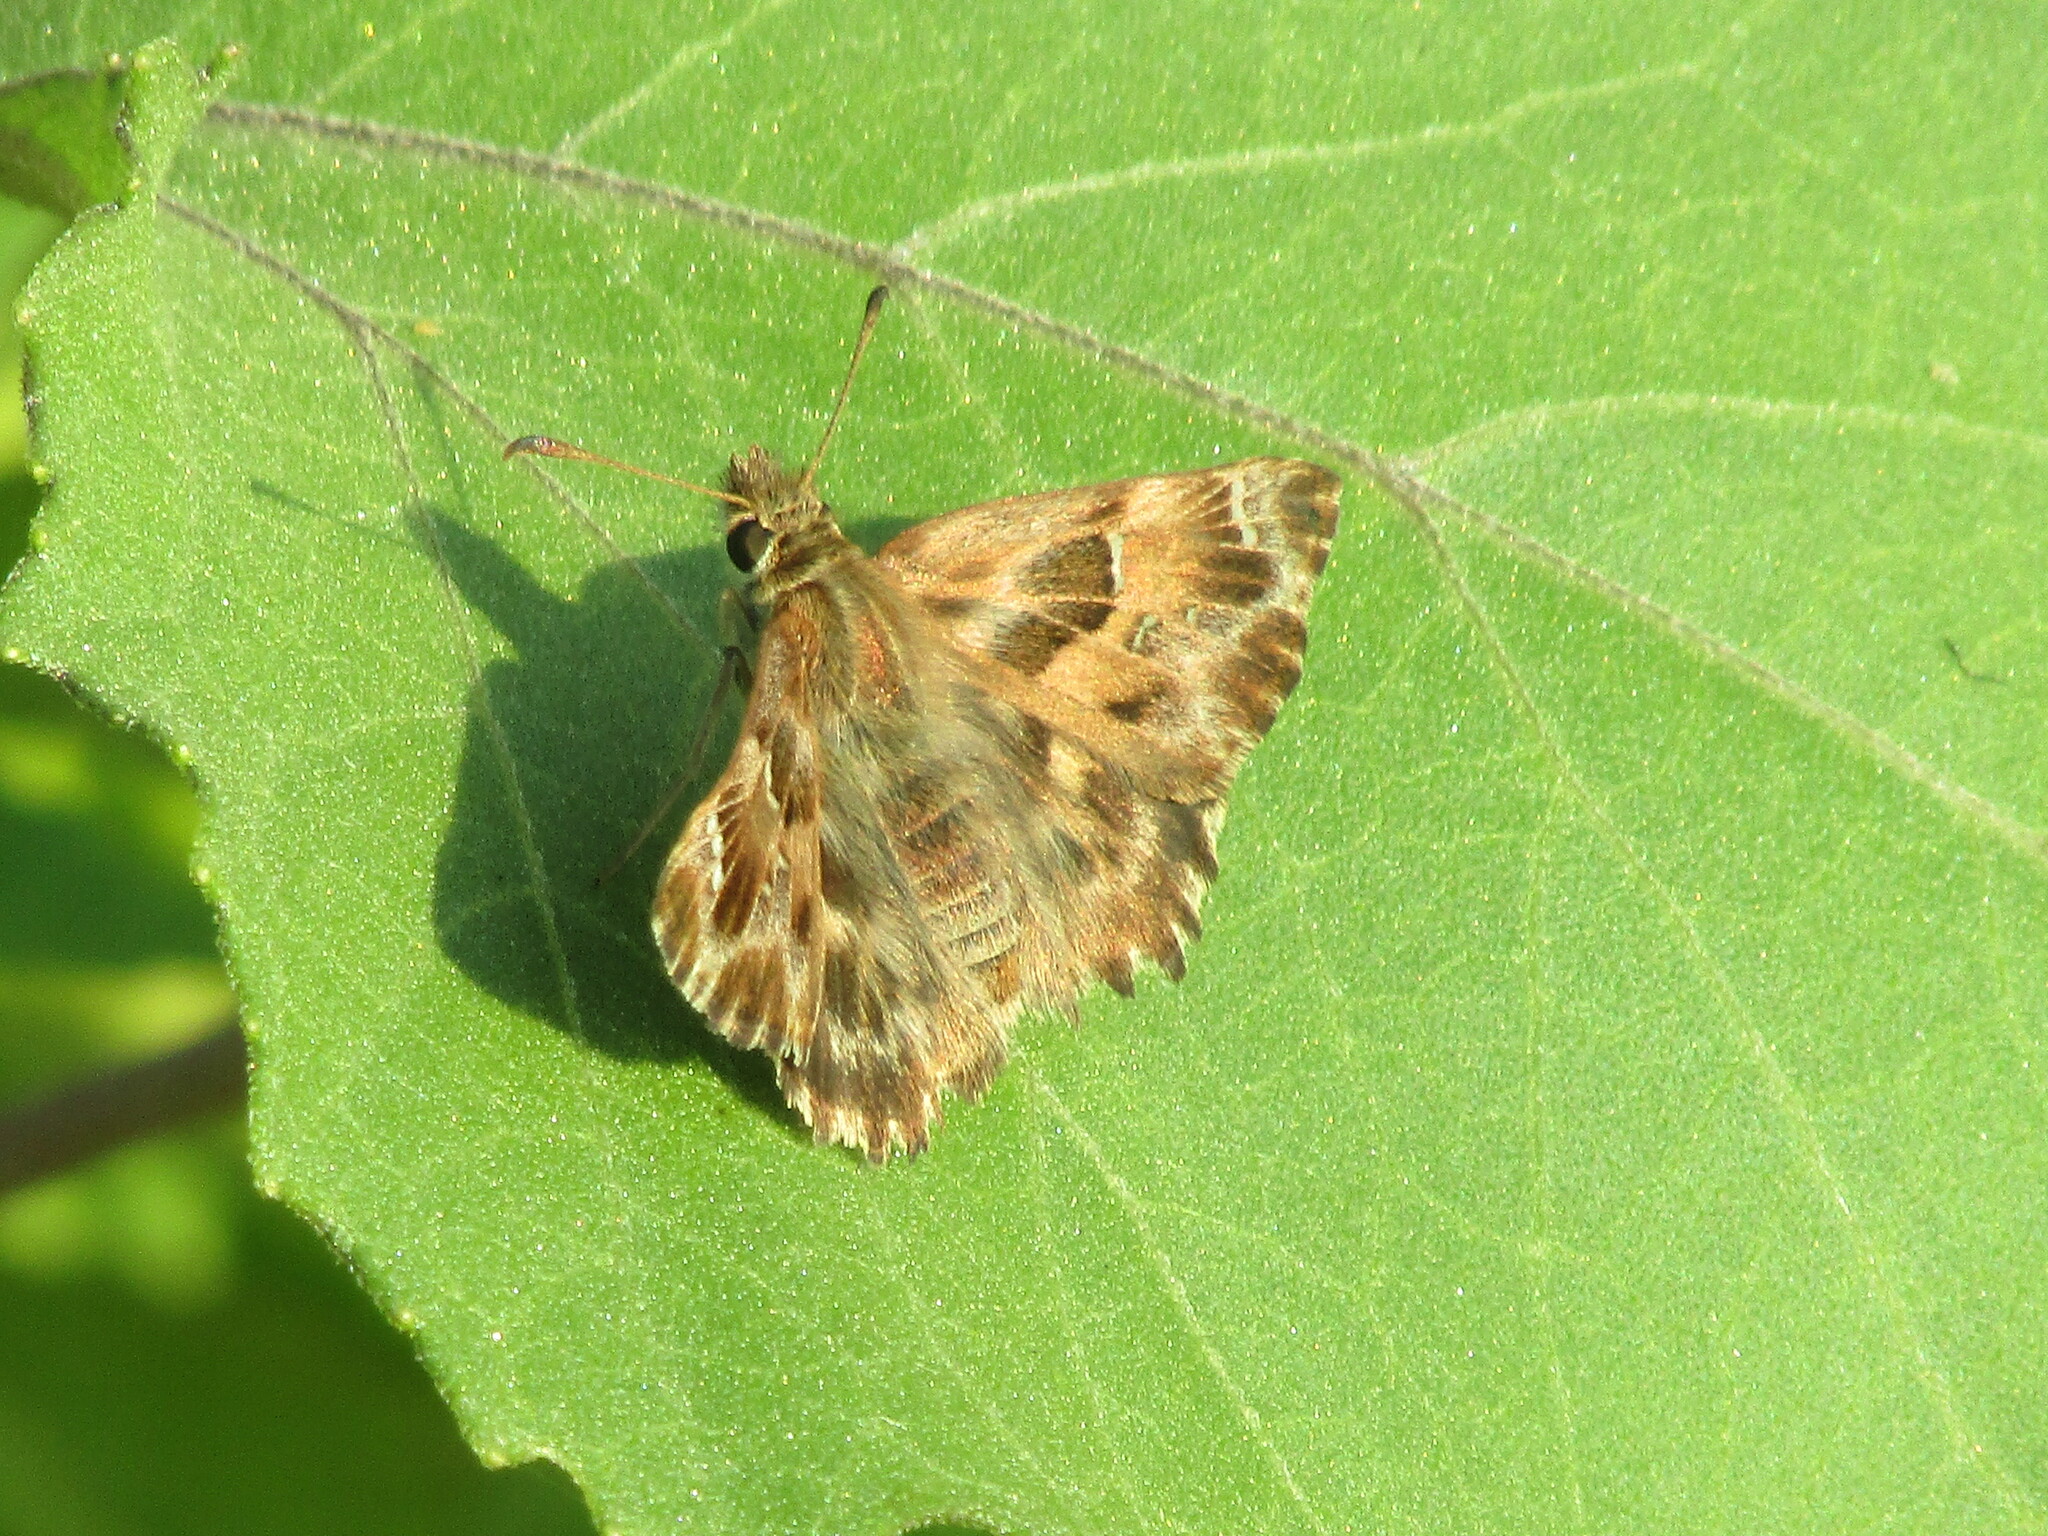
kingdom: Animalia
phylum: Arthropoda
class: Insecta
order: Lepidoptera
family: Hesperiidae
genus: Carcharodus
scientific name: Carcharodus alceae
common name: Mallow skipper
